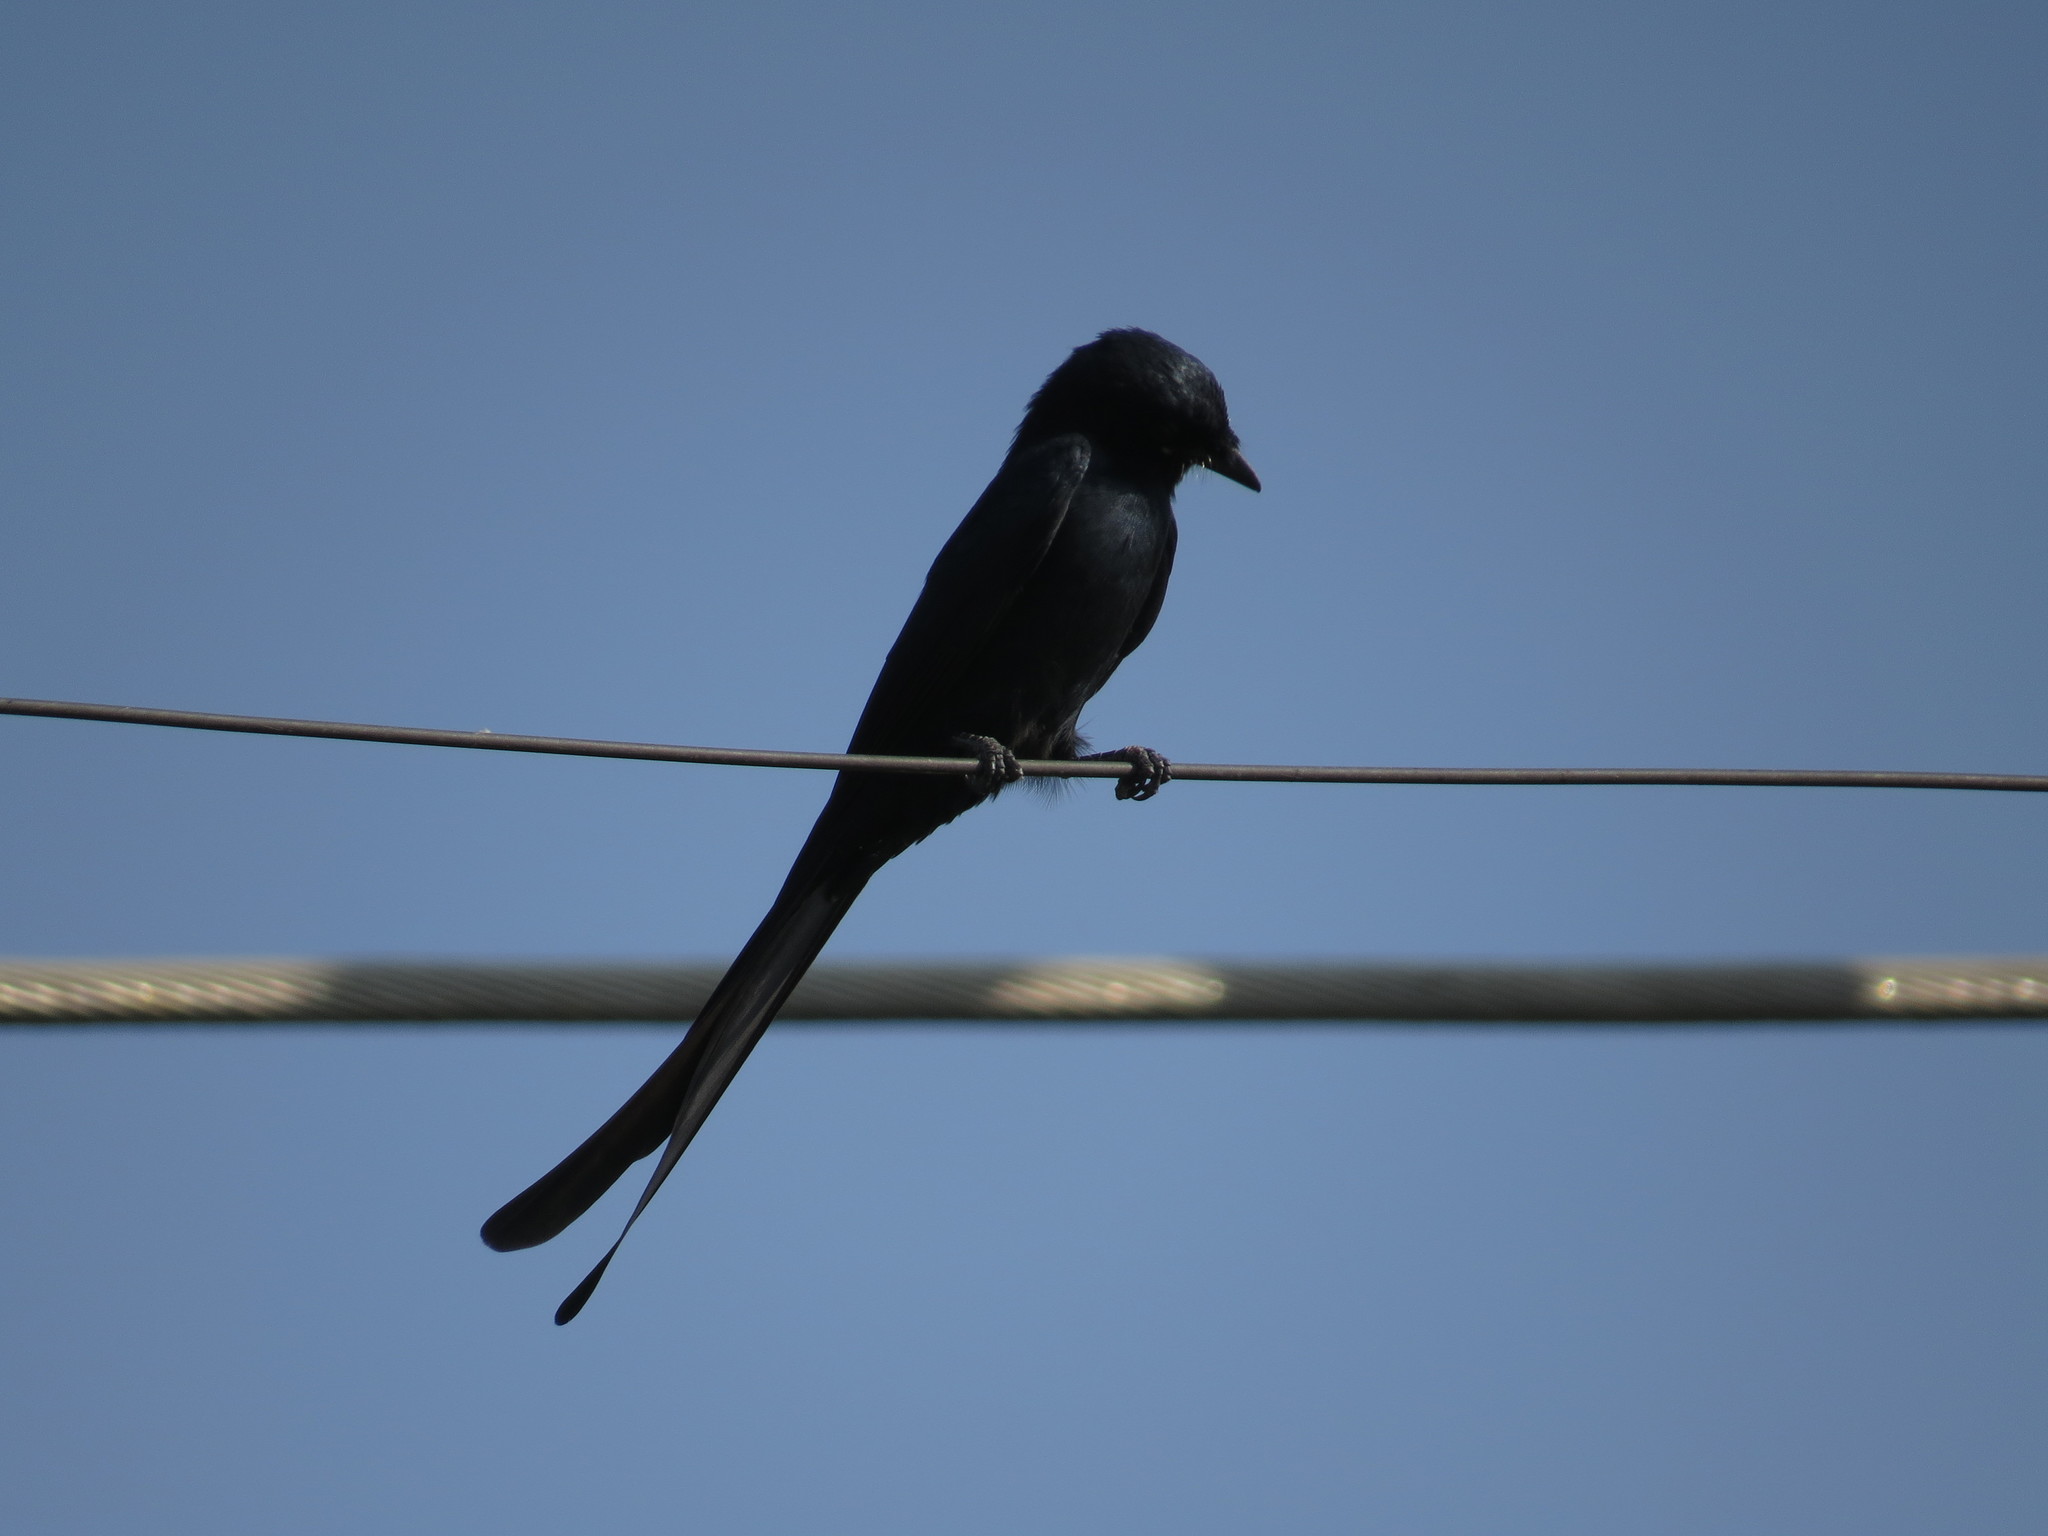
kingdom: Animalia
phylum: Chordata
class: Aves
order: Passeriformes
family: Dicruridae
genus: Dicrurus
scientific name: Dicrurus macrocercus
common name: Black drongo
